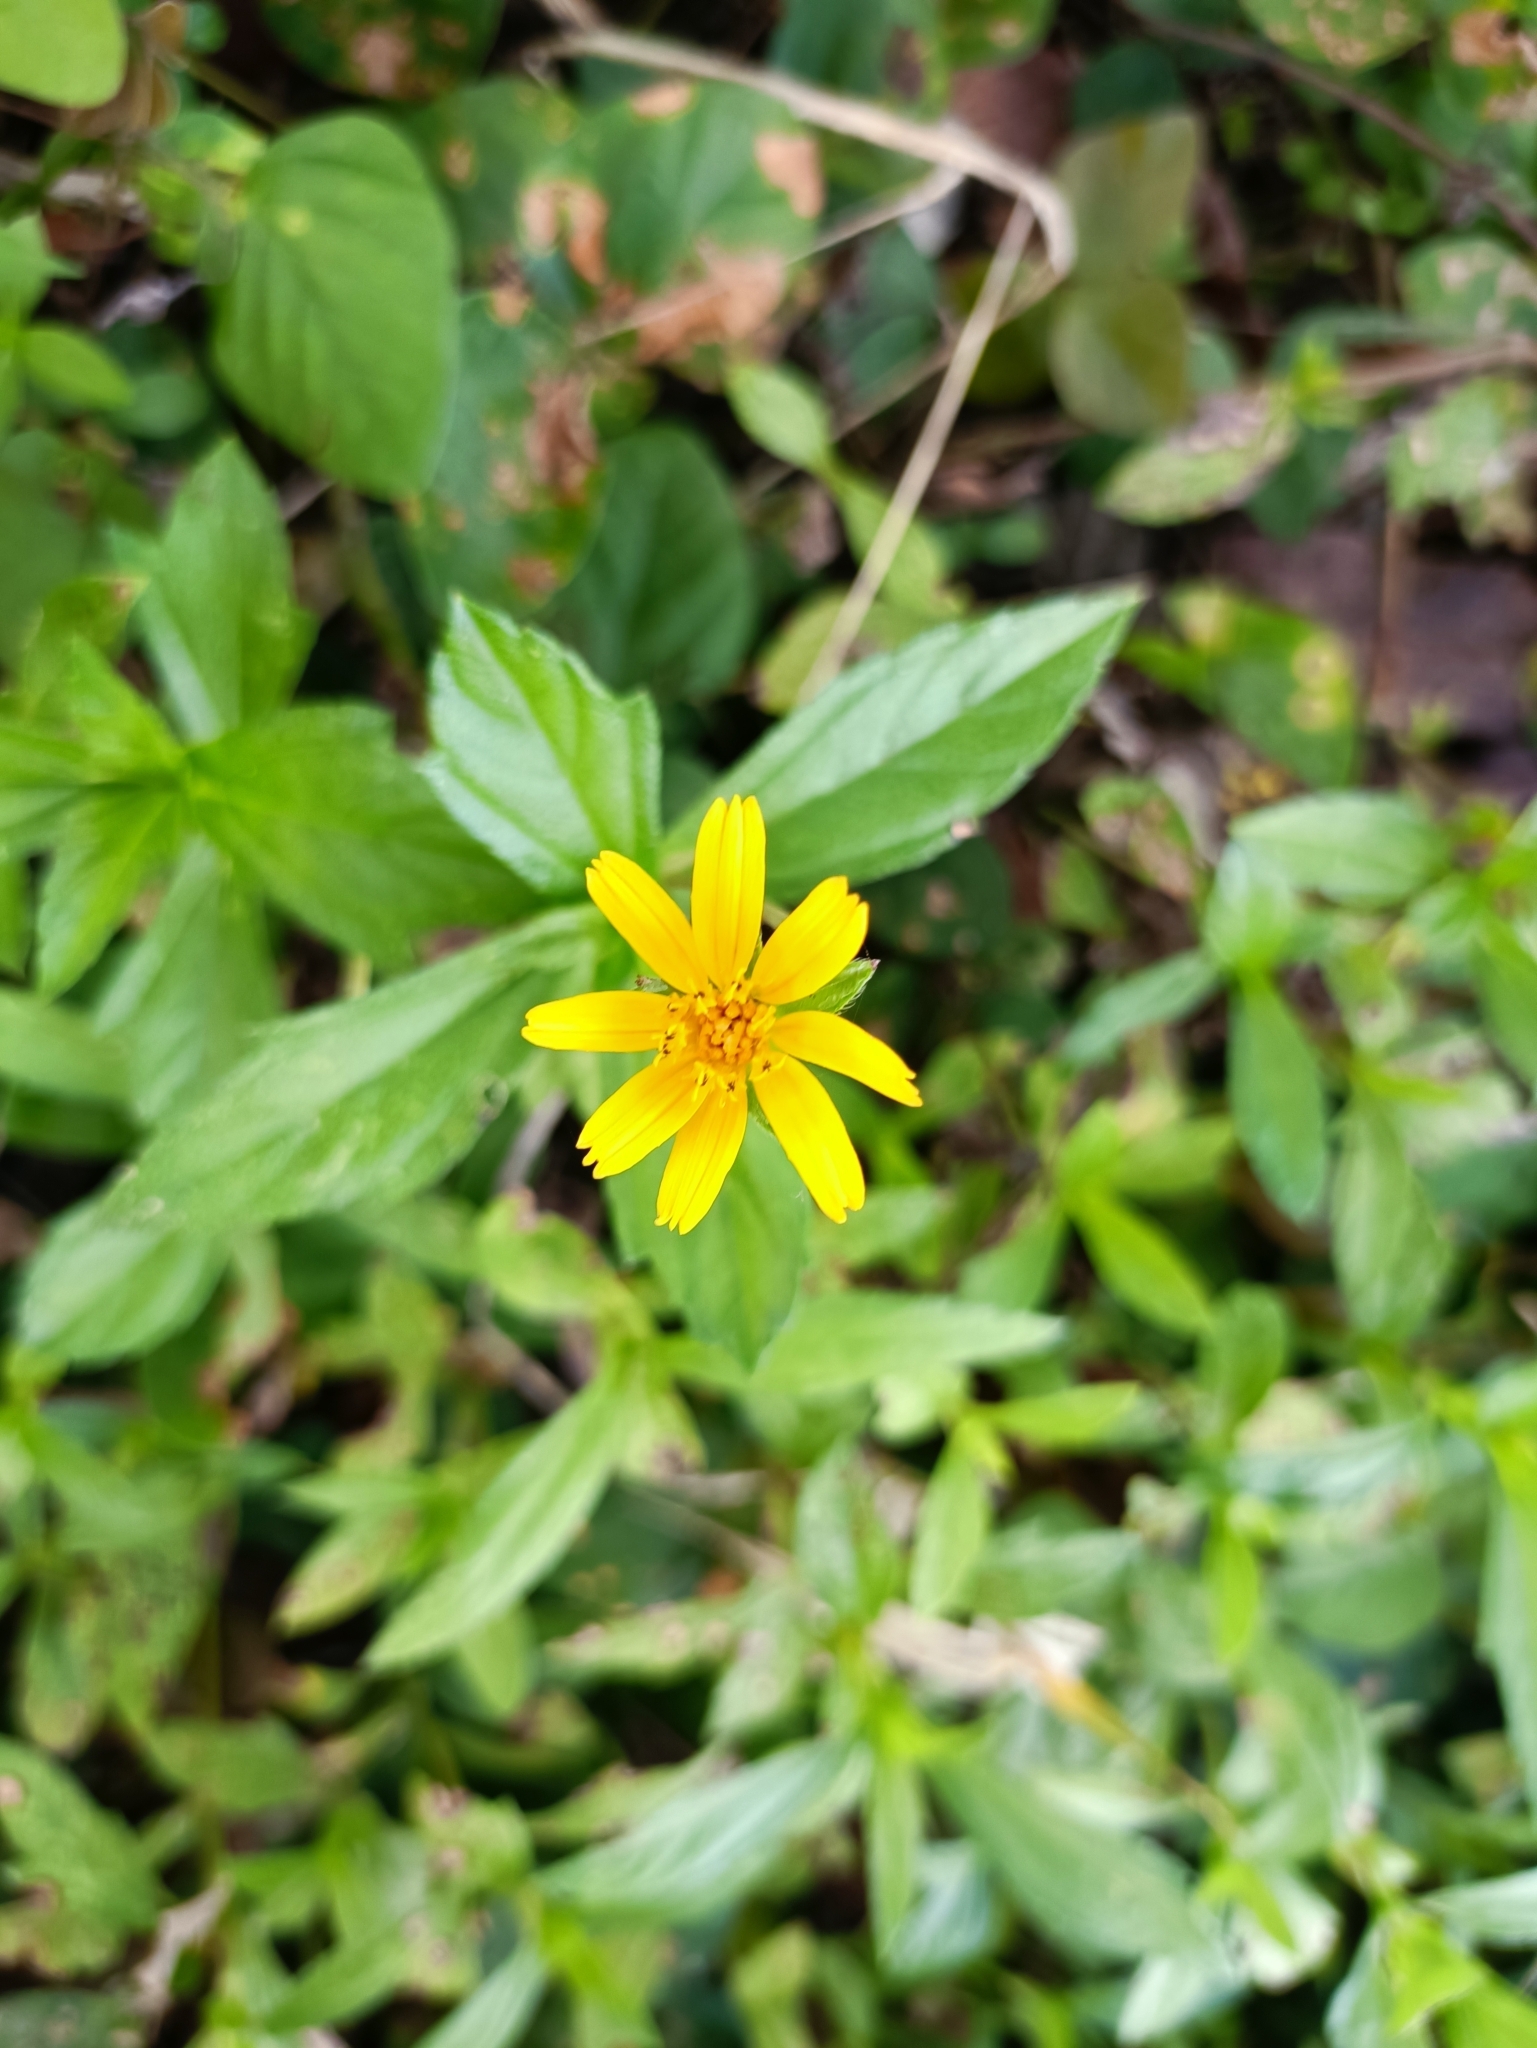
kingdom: Plantae
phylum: Tracheophyta
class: Magnoliopsida
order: Asterales
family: Asteraceae
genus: Sphagneticola
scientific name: Sphagneticola trilobata
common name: Bay biscayne creeping-oxeye
